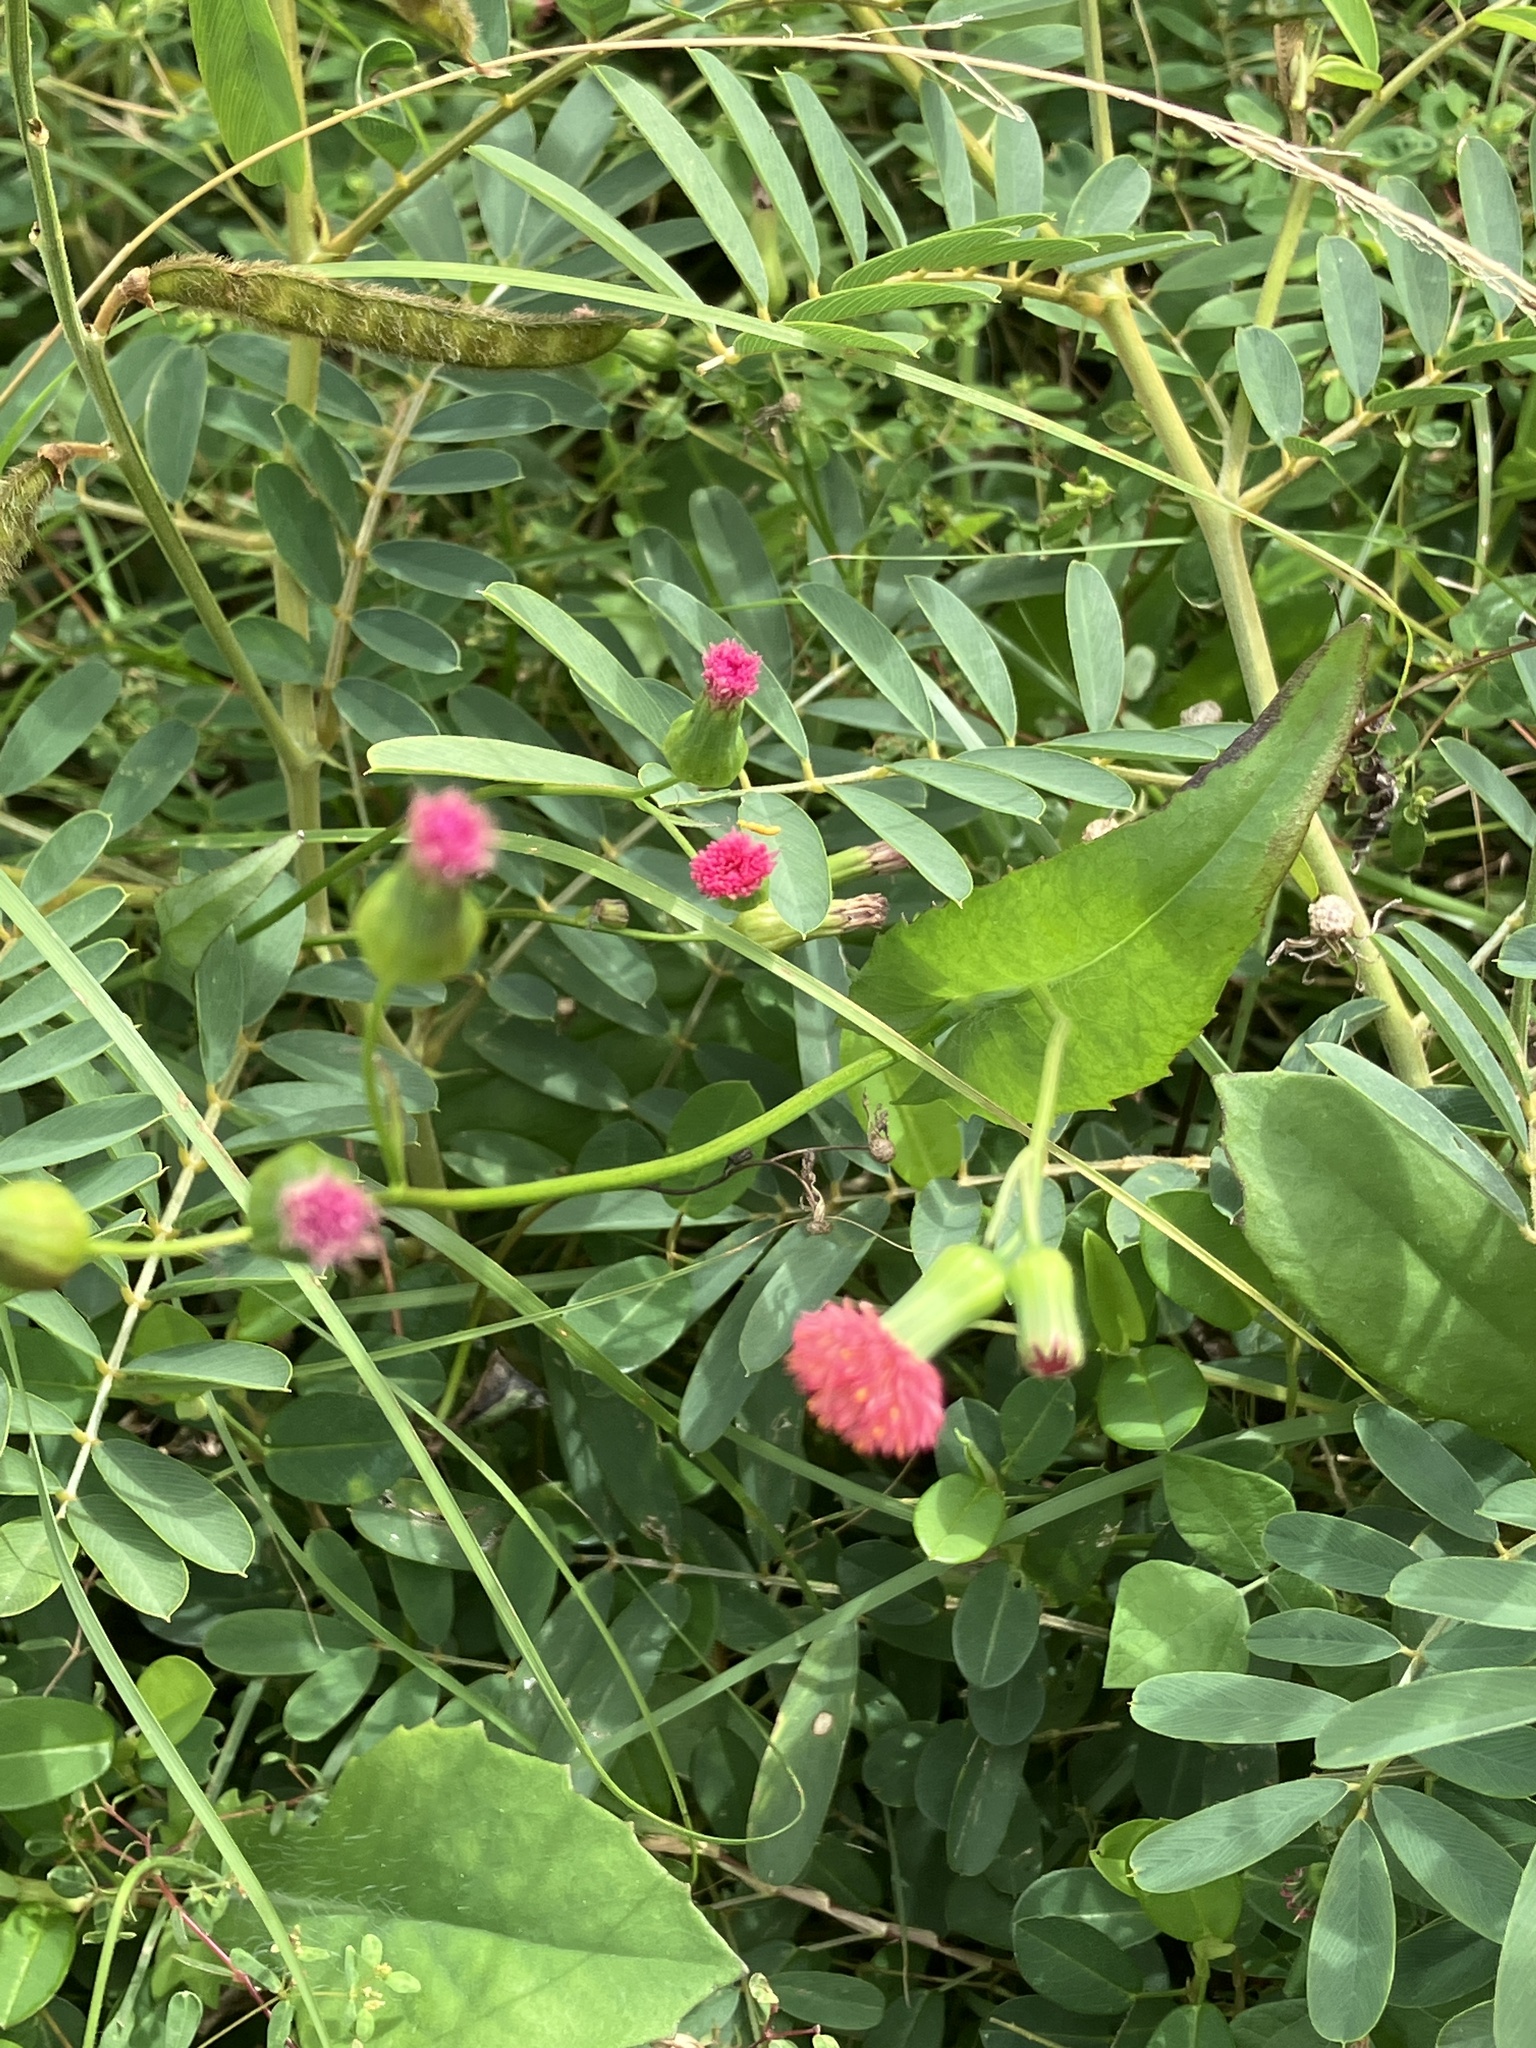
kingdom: Plantae
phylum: Tracheophyta
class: Magnoliopsida
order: Asterales
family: Asteraceae
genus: Emilia
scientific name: Emilia fosbergii
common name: Florida tasselflower
